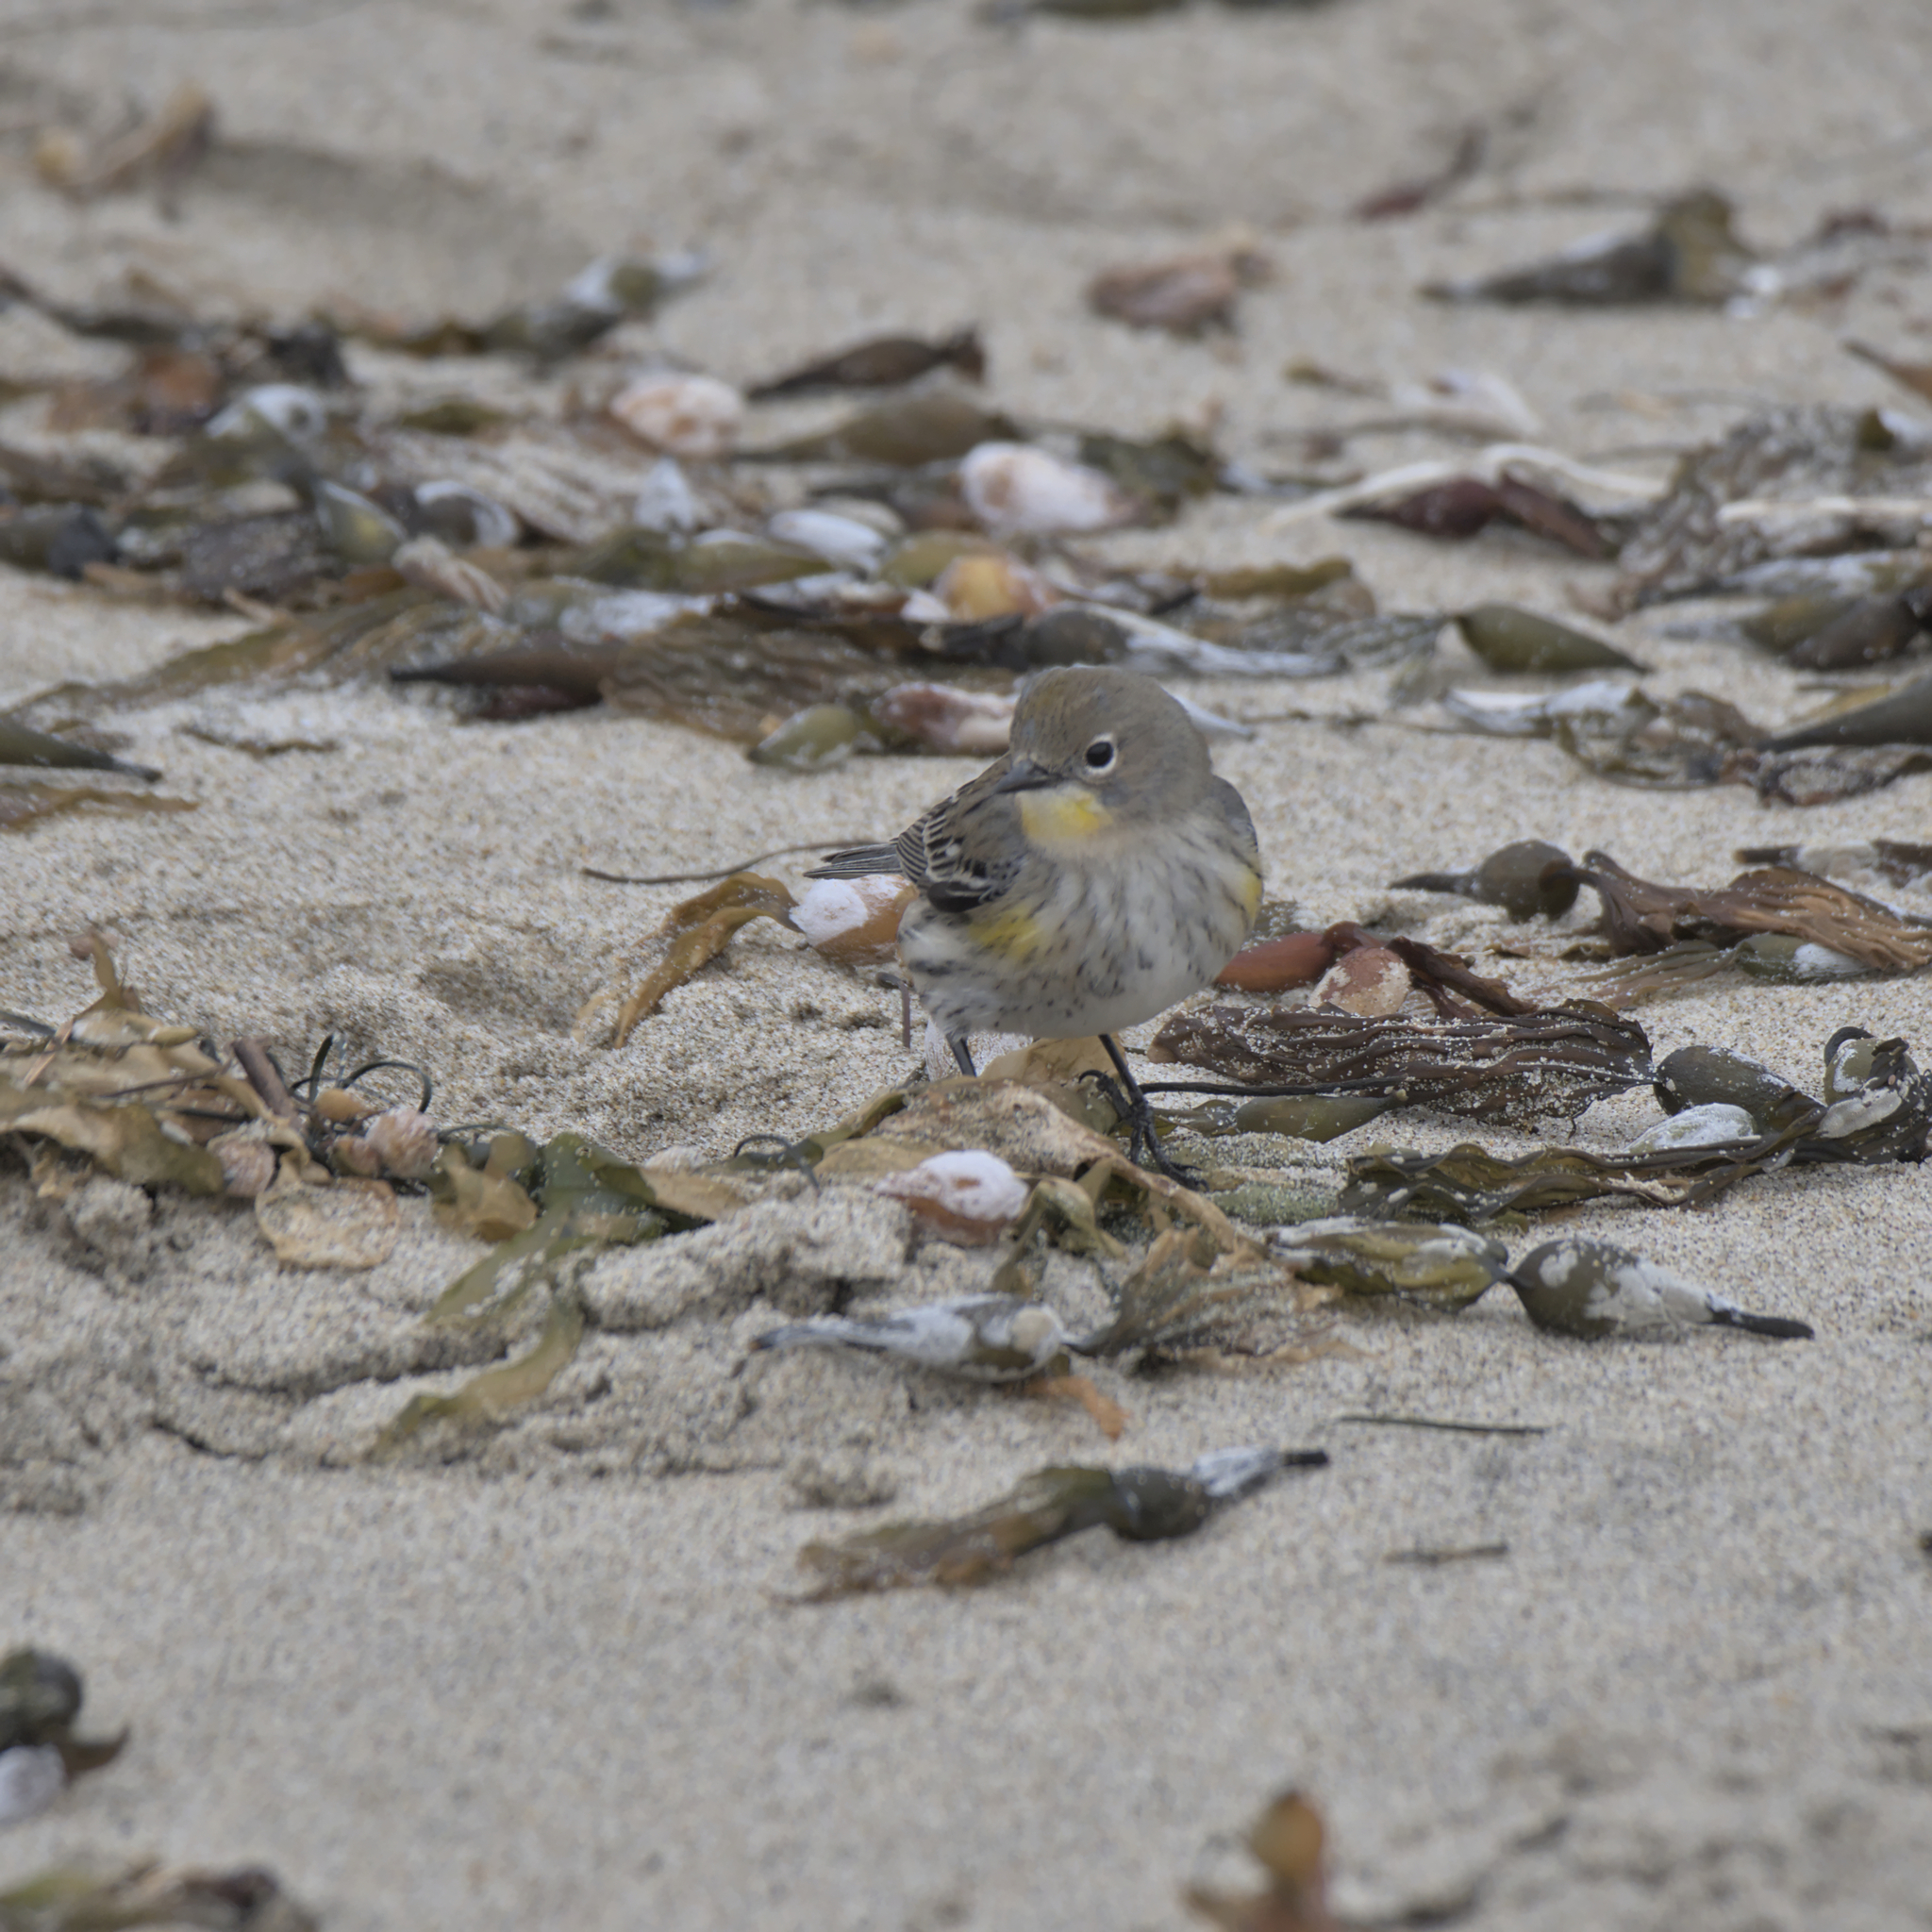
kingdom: Animalia
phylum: Chordata
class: Aves
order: Passeriformes
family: Parulidae
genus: Setophaga
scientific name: Setophaga coronata
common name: Myrtle warbler
